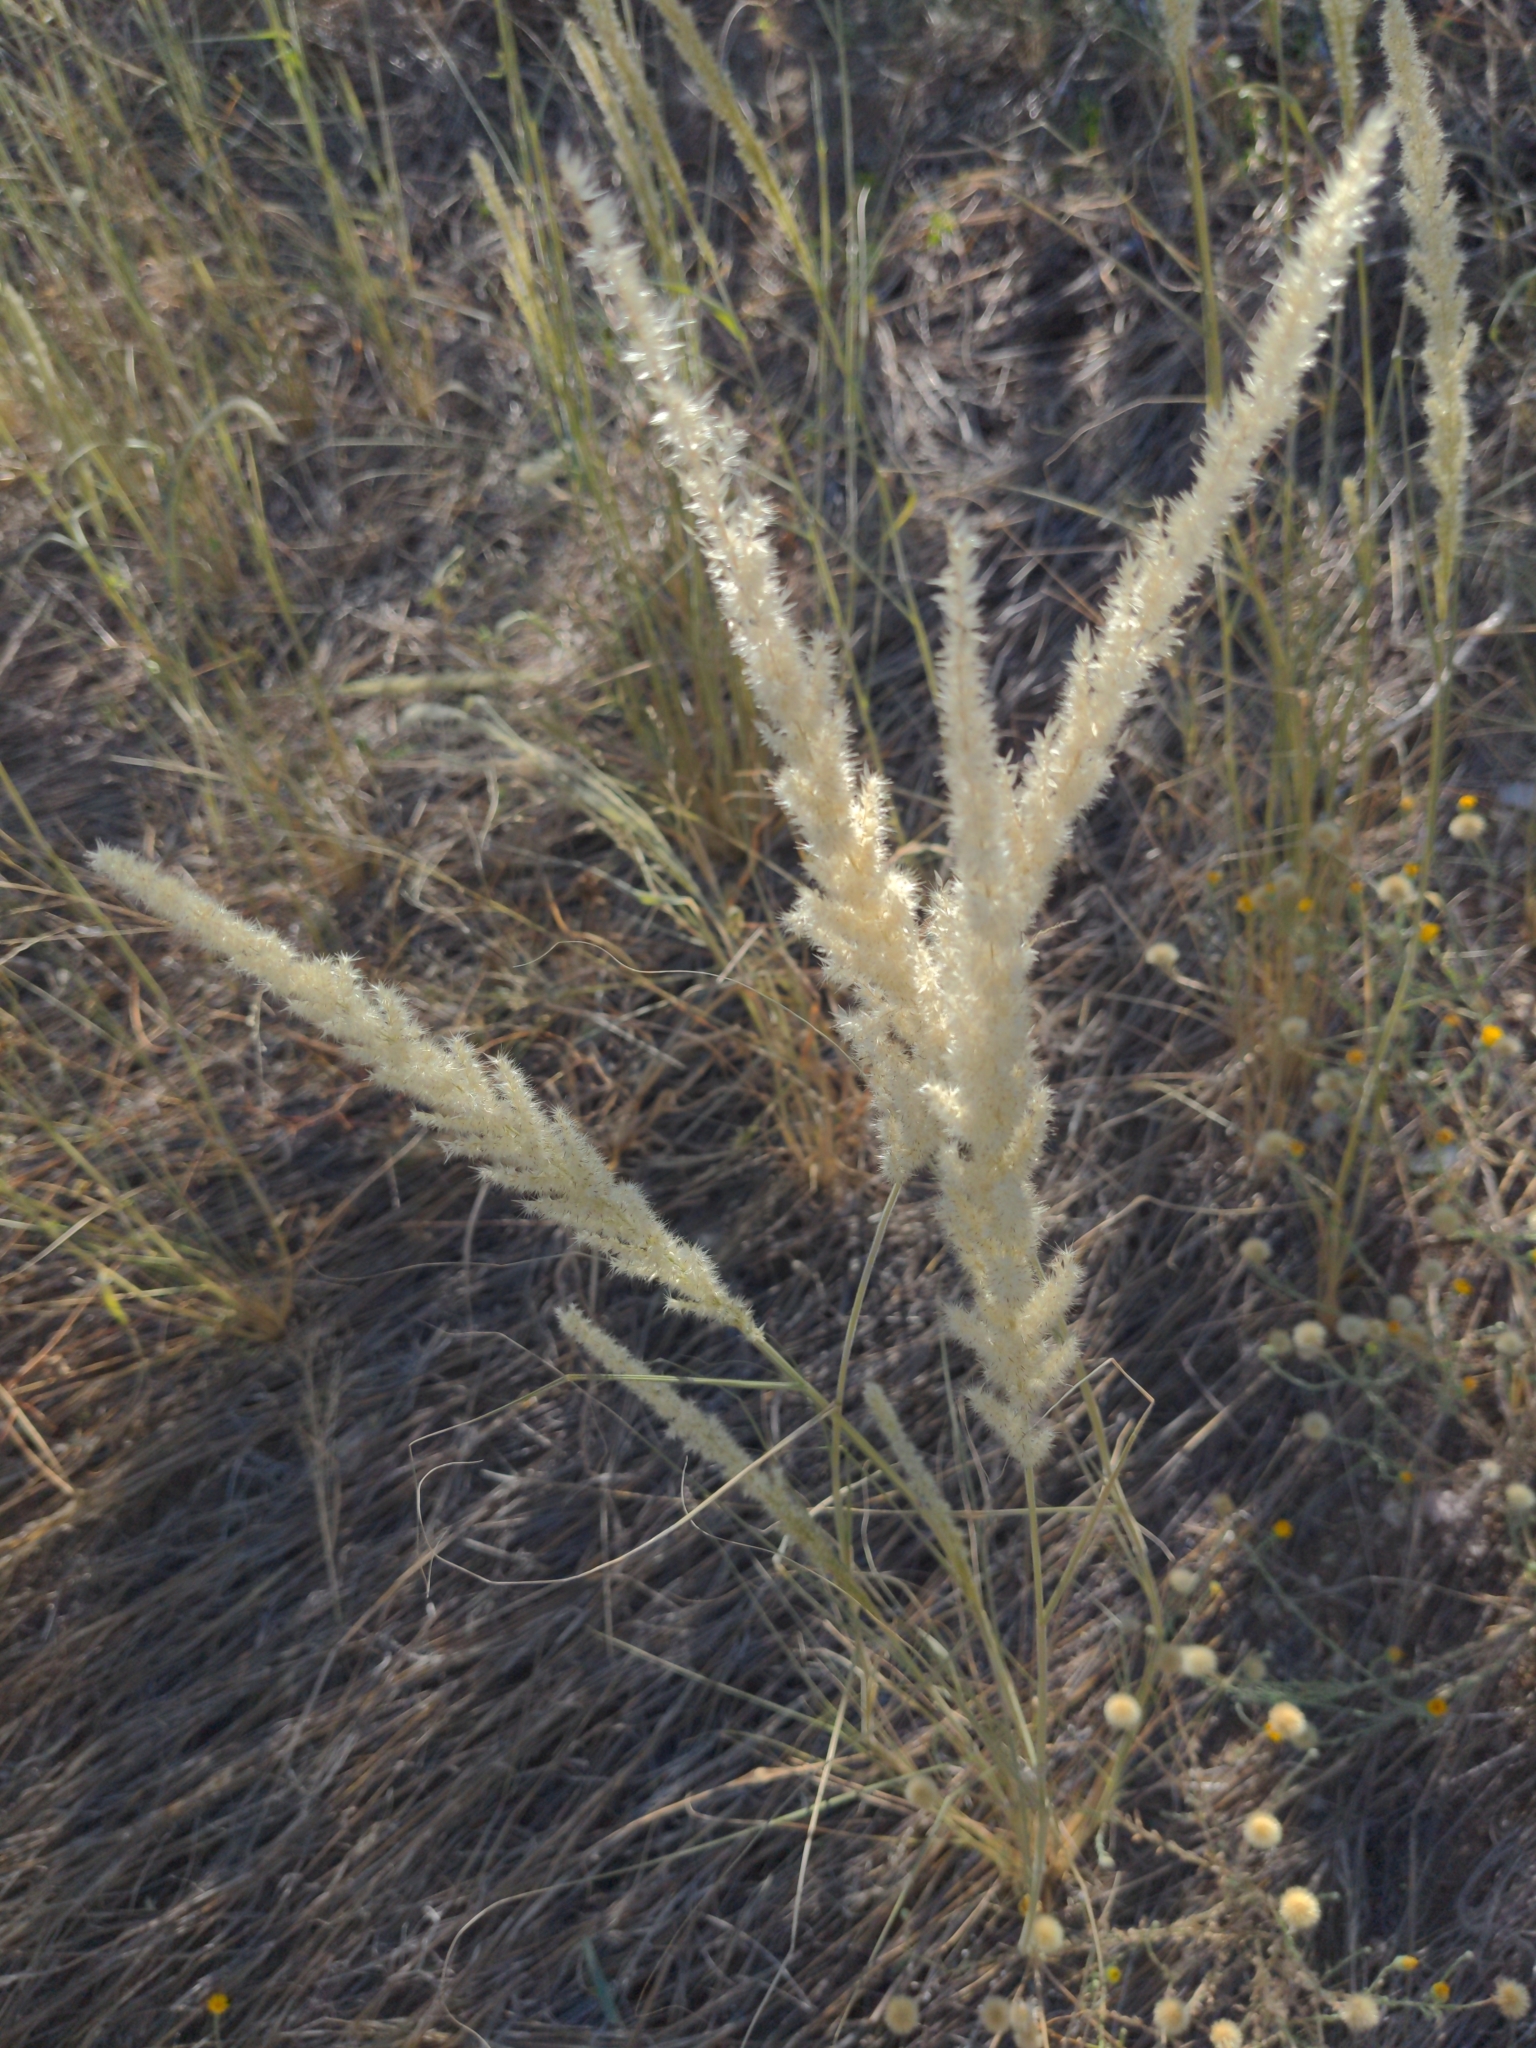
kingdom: Plantae
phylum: Tracheophyta
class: Liliopsida
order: Poales
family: Poaceae
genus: Enneapogon
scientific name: Enneapogon cenchroides
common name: Soft feather pappusgrass
